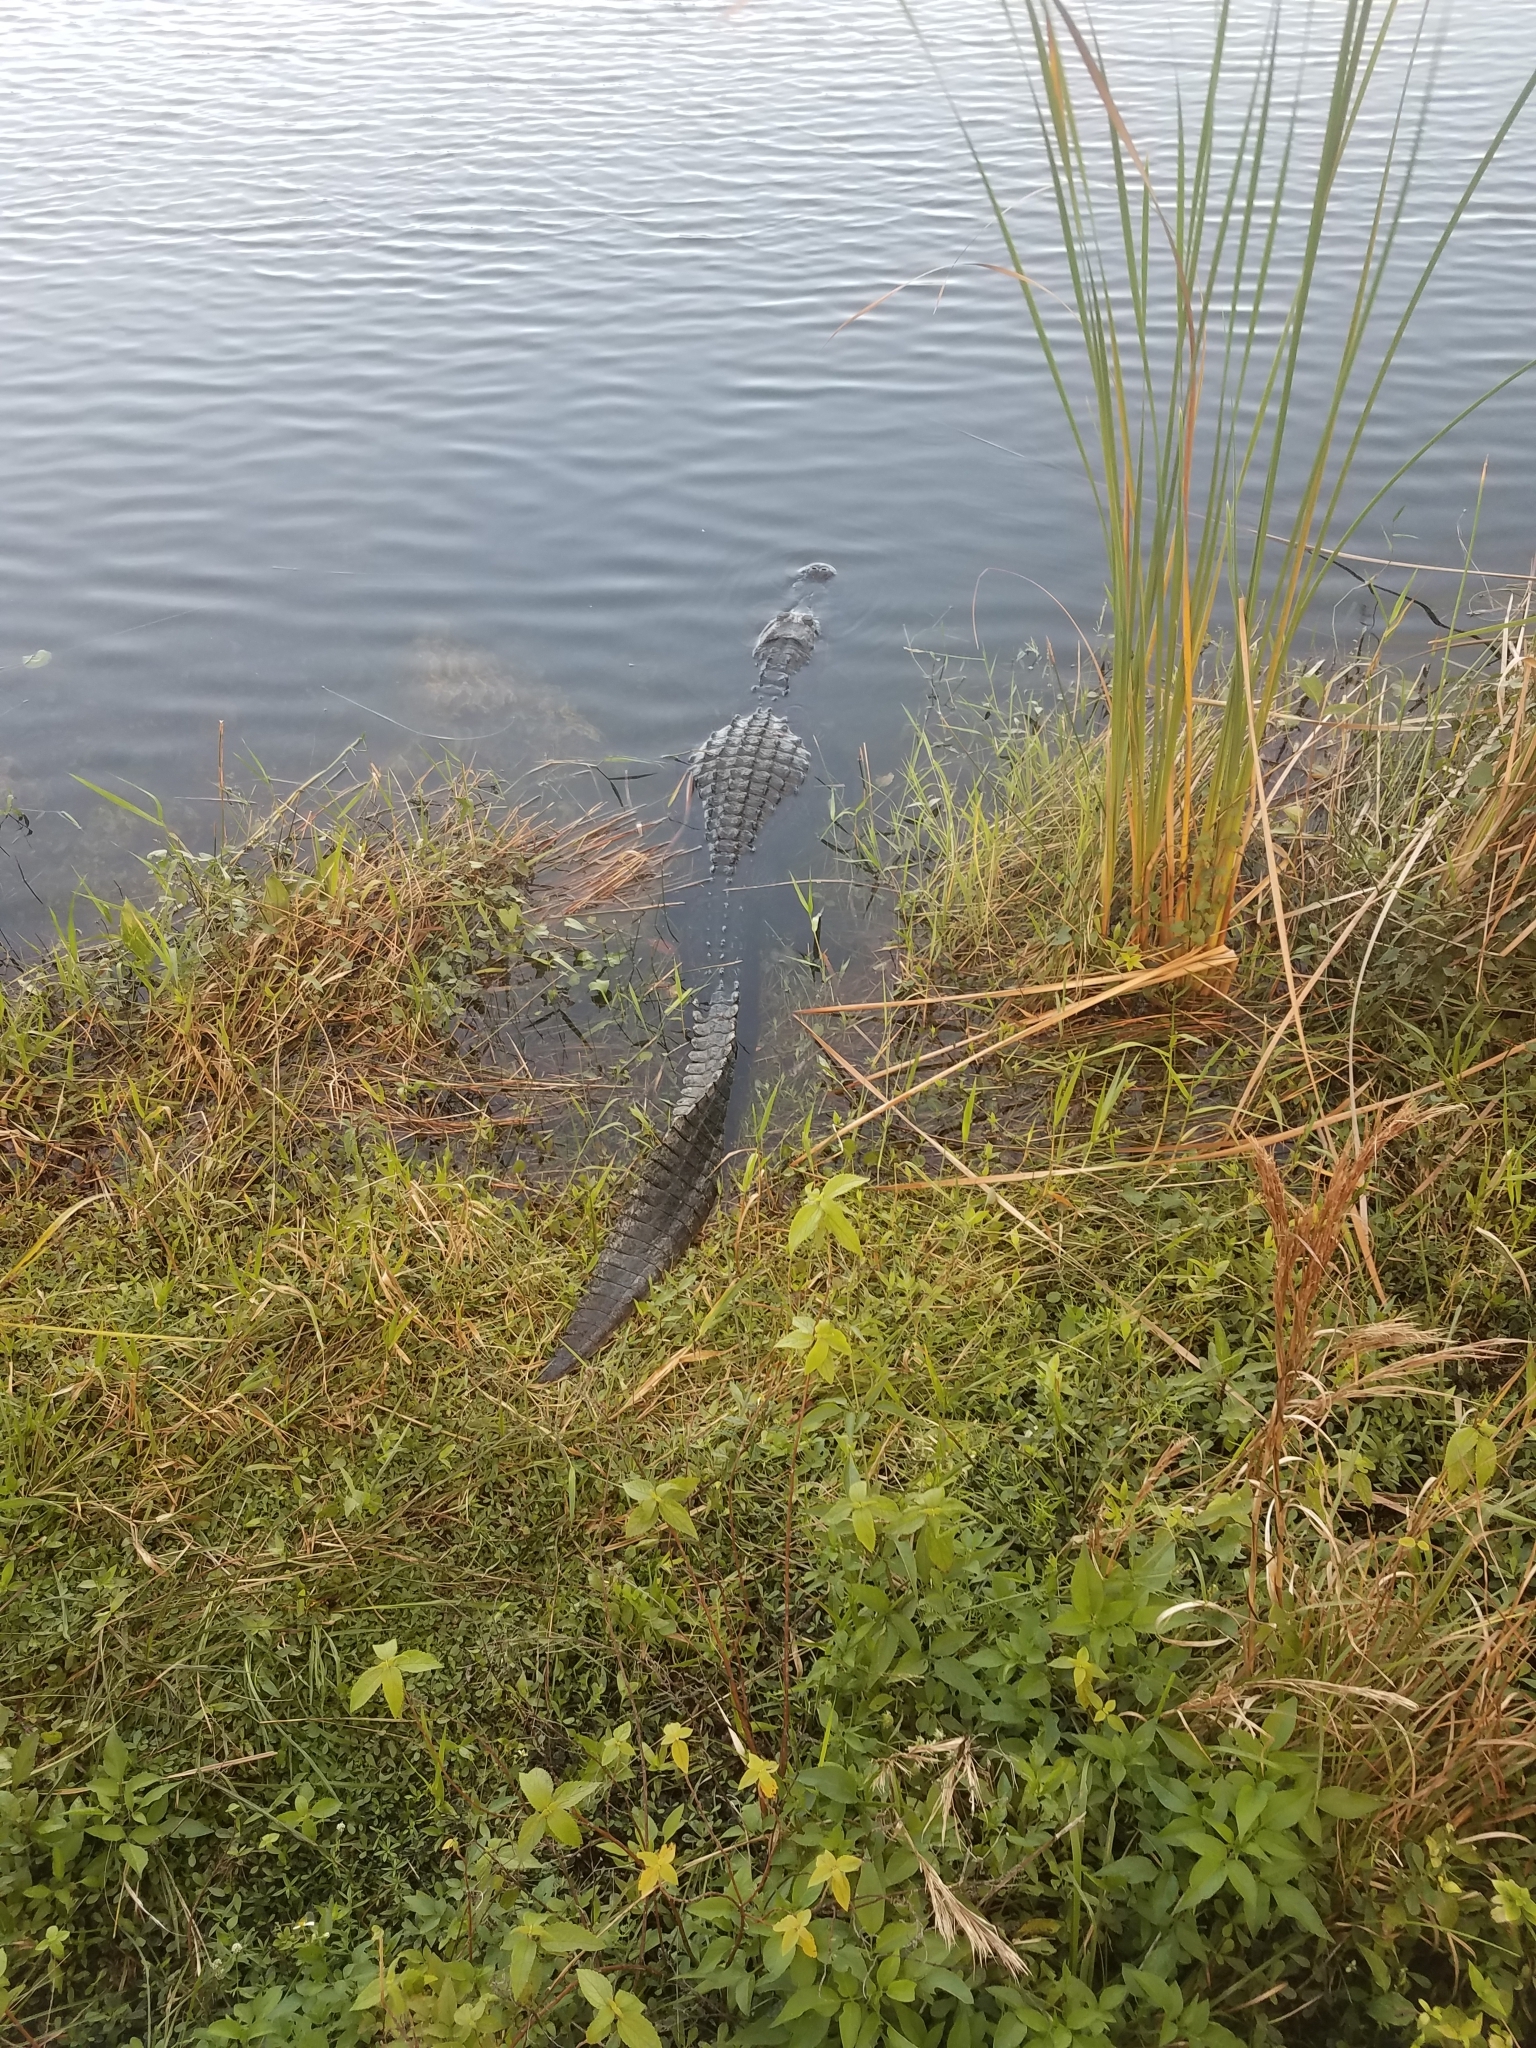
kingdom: Animalia
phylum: Chordata
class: Crocodylia
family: Alligatoridae
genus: Alligator
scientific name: Alligator mississippiensis
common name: American alligator
